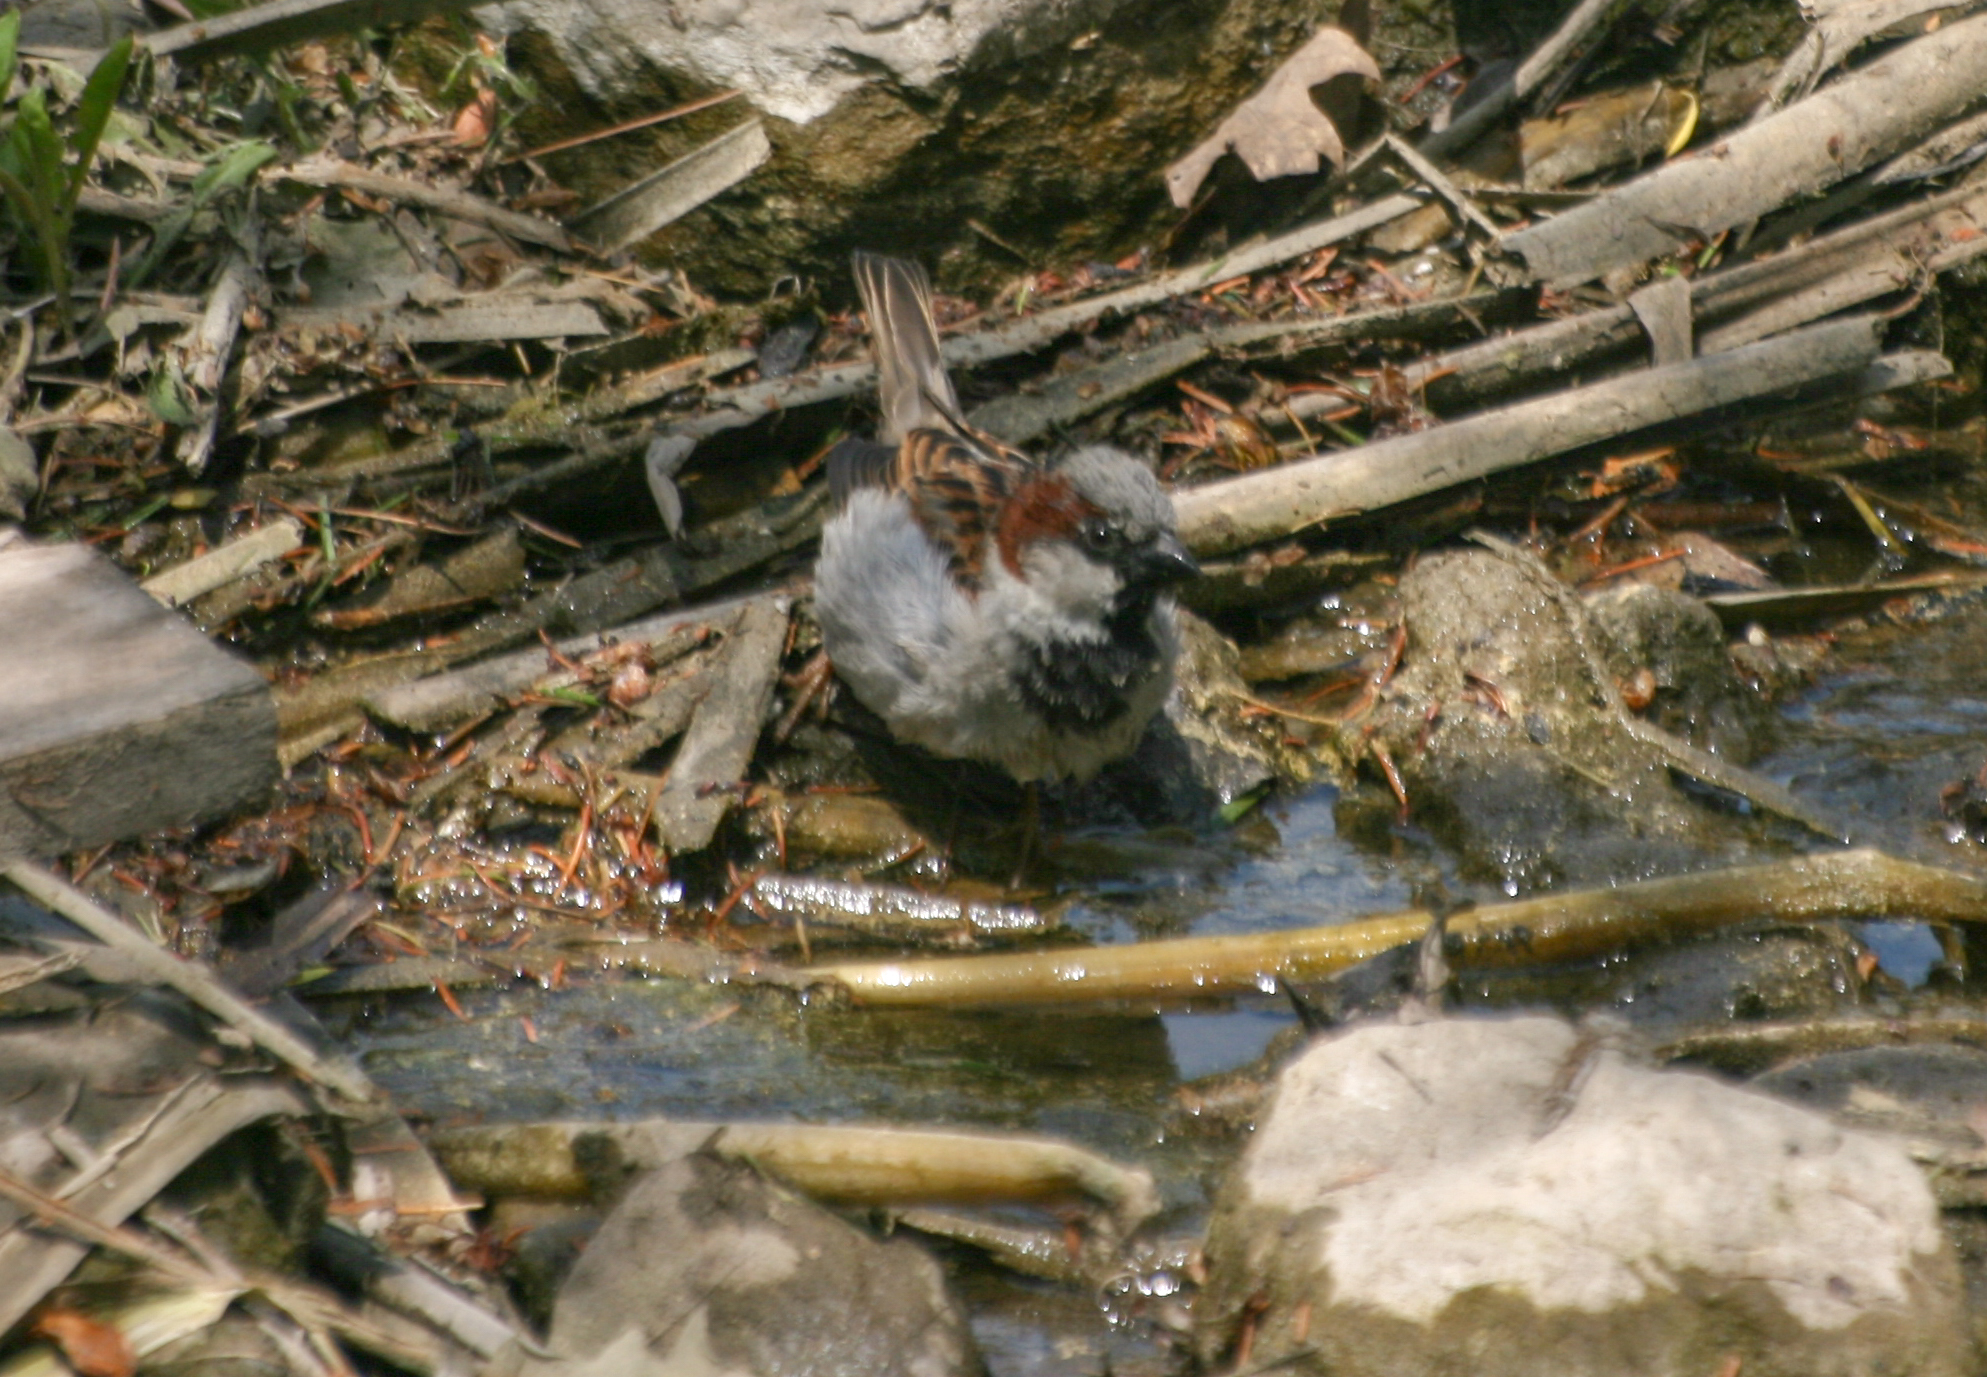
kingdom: Animalia
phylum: Chordata
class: Aves
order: Passeriformes
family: Passeridae
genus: Passer
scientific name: Passer domesticus
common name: House sparrow
